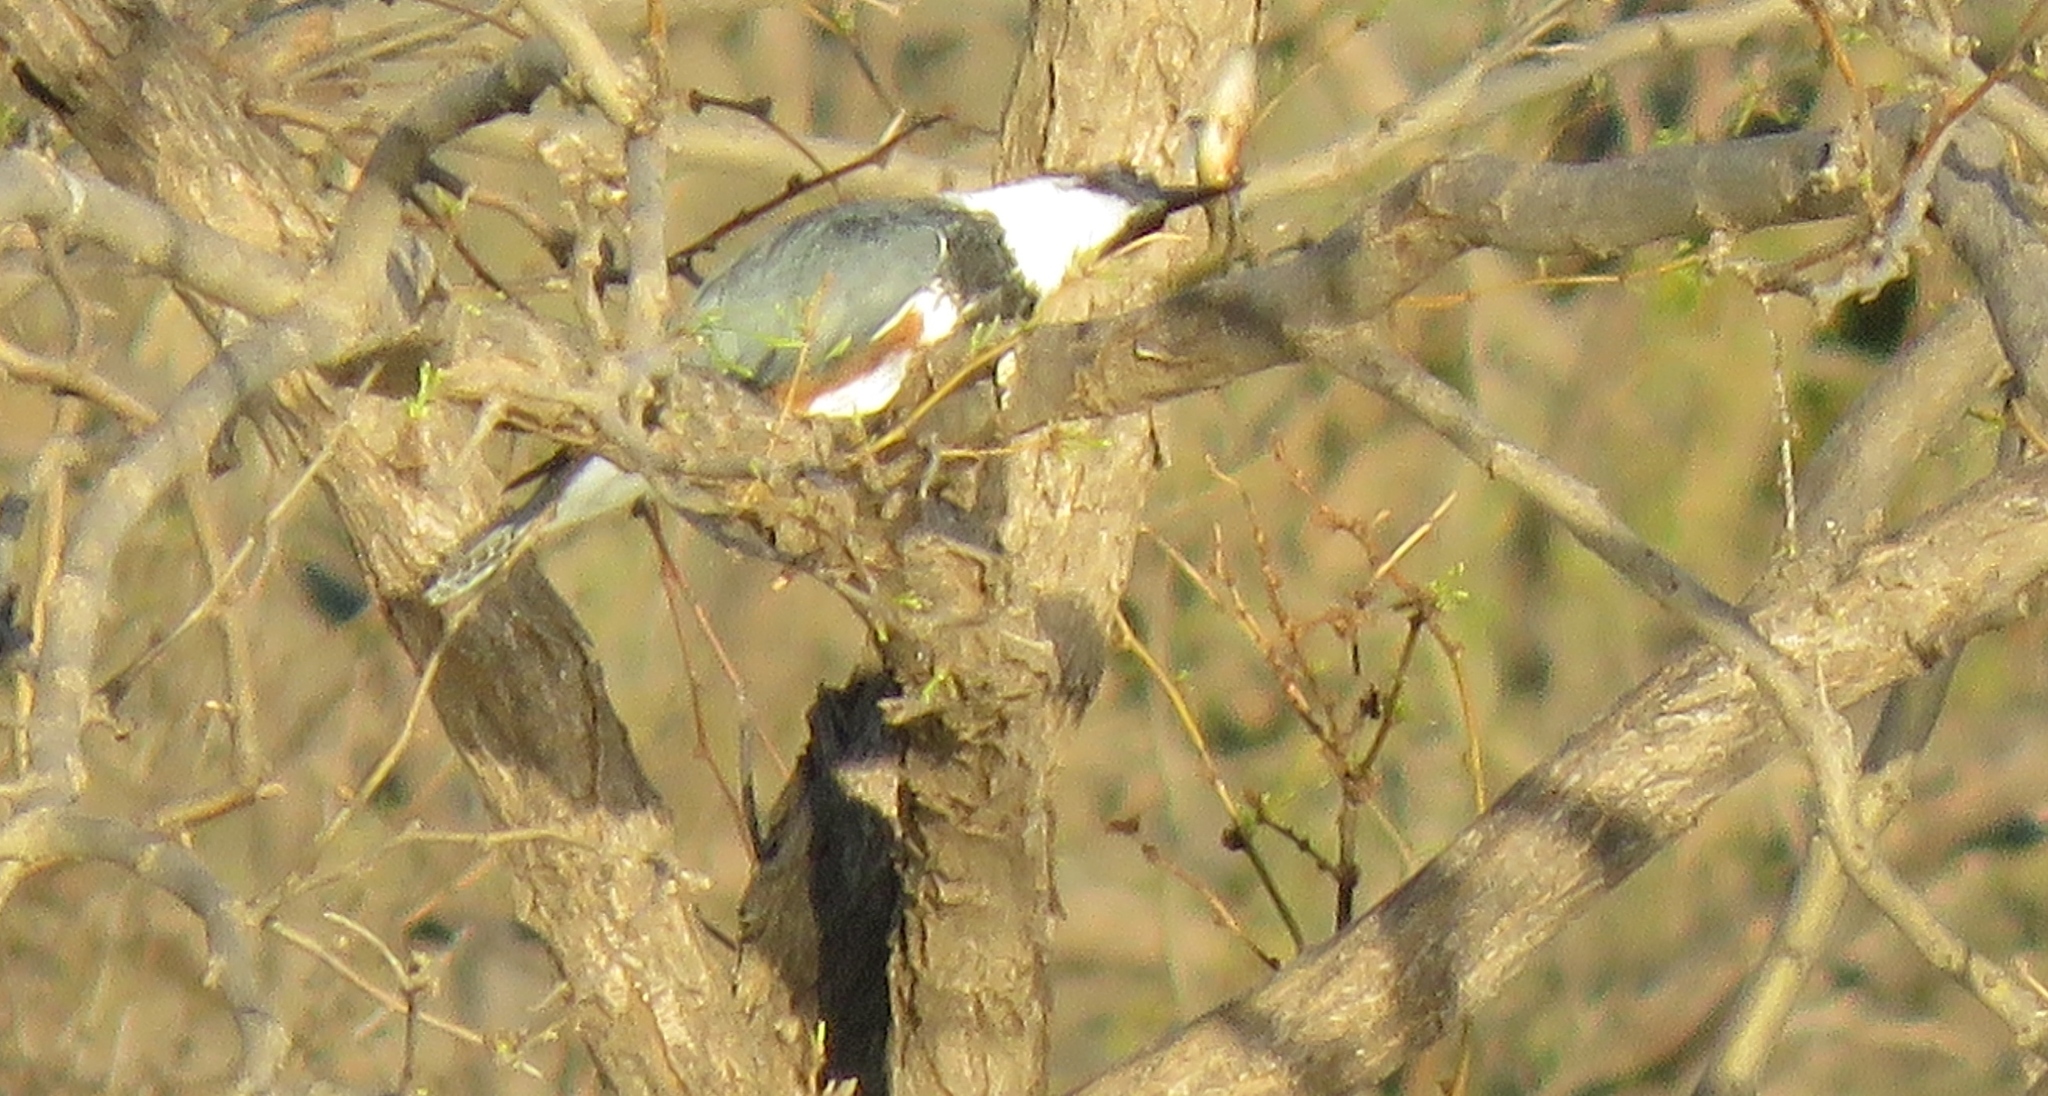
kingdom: Animalia
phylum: Chordata
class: Aves
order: Coraciiformes
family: Alcedinidae
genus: Megaceryle
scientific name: Megaceryle alcyon
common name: Belted kingfisher
